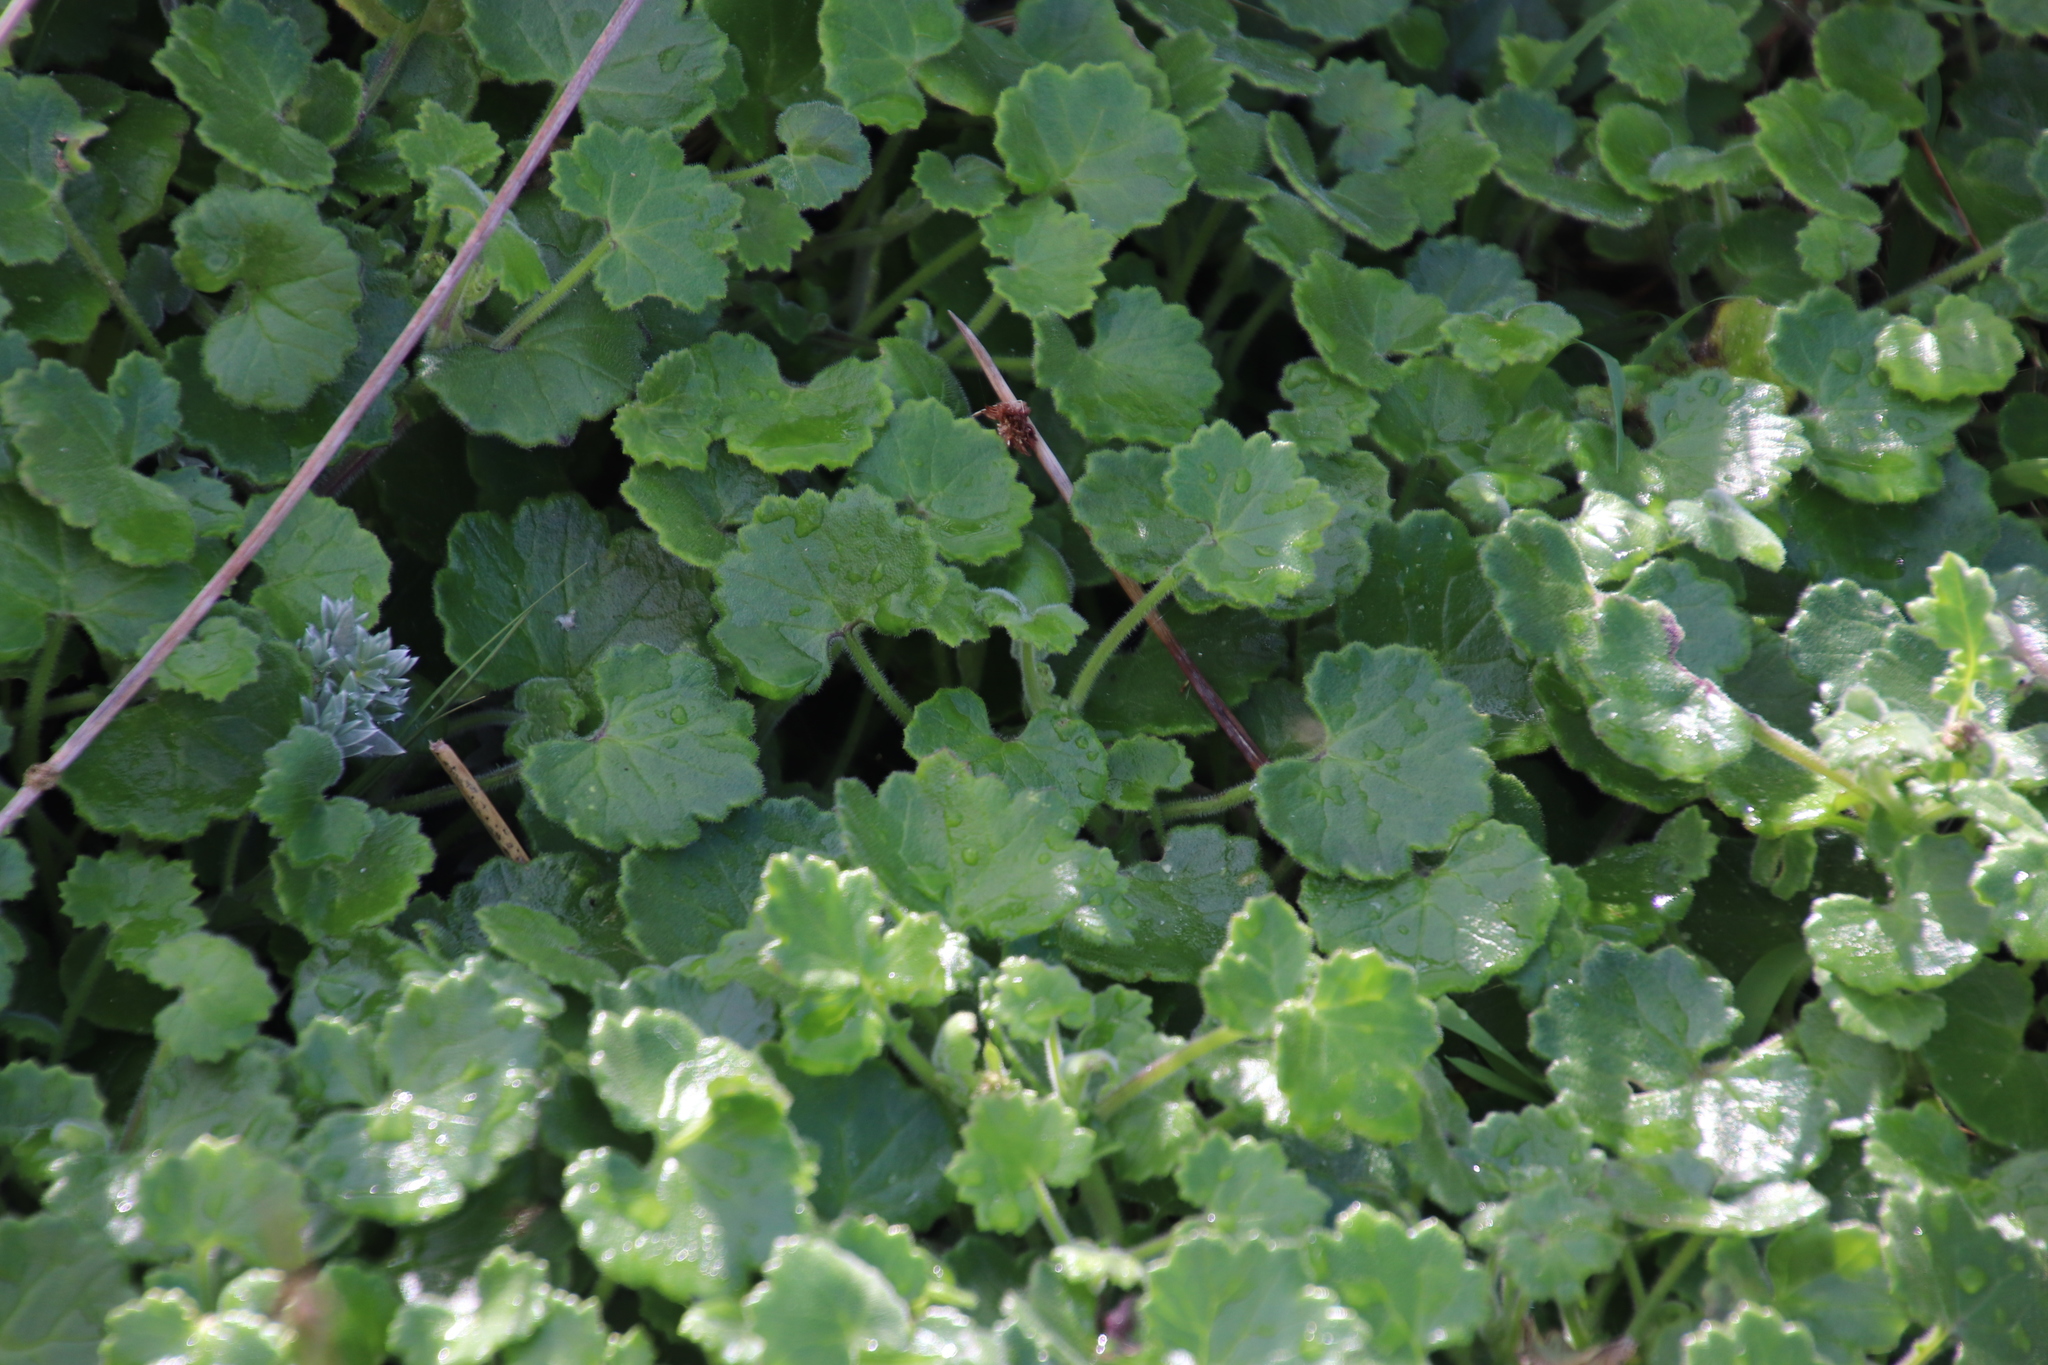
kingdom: Plantae
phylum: Tracheophyta
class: Magnoliopsida
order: Asterales
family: Asteraceae
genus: Cineraria
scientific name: Cineraria geifolia
